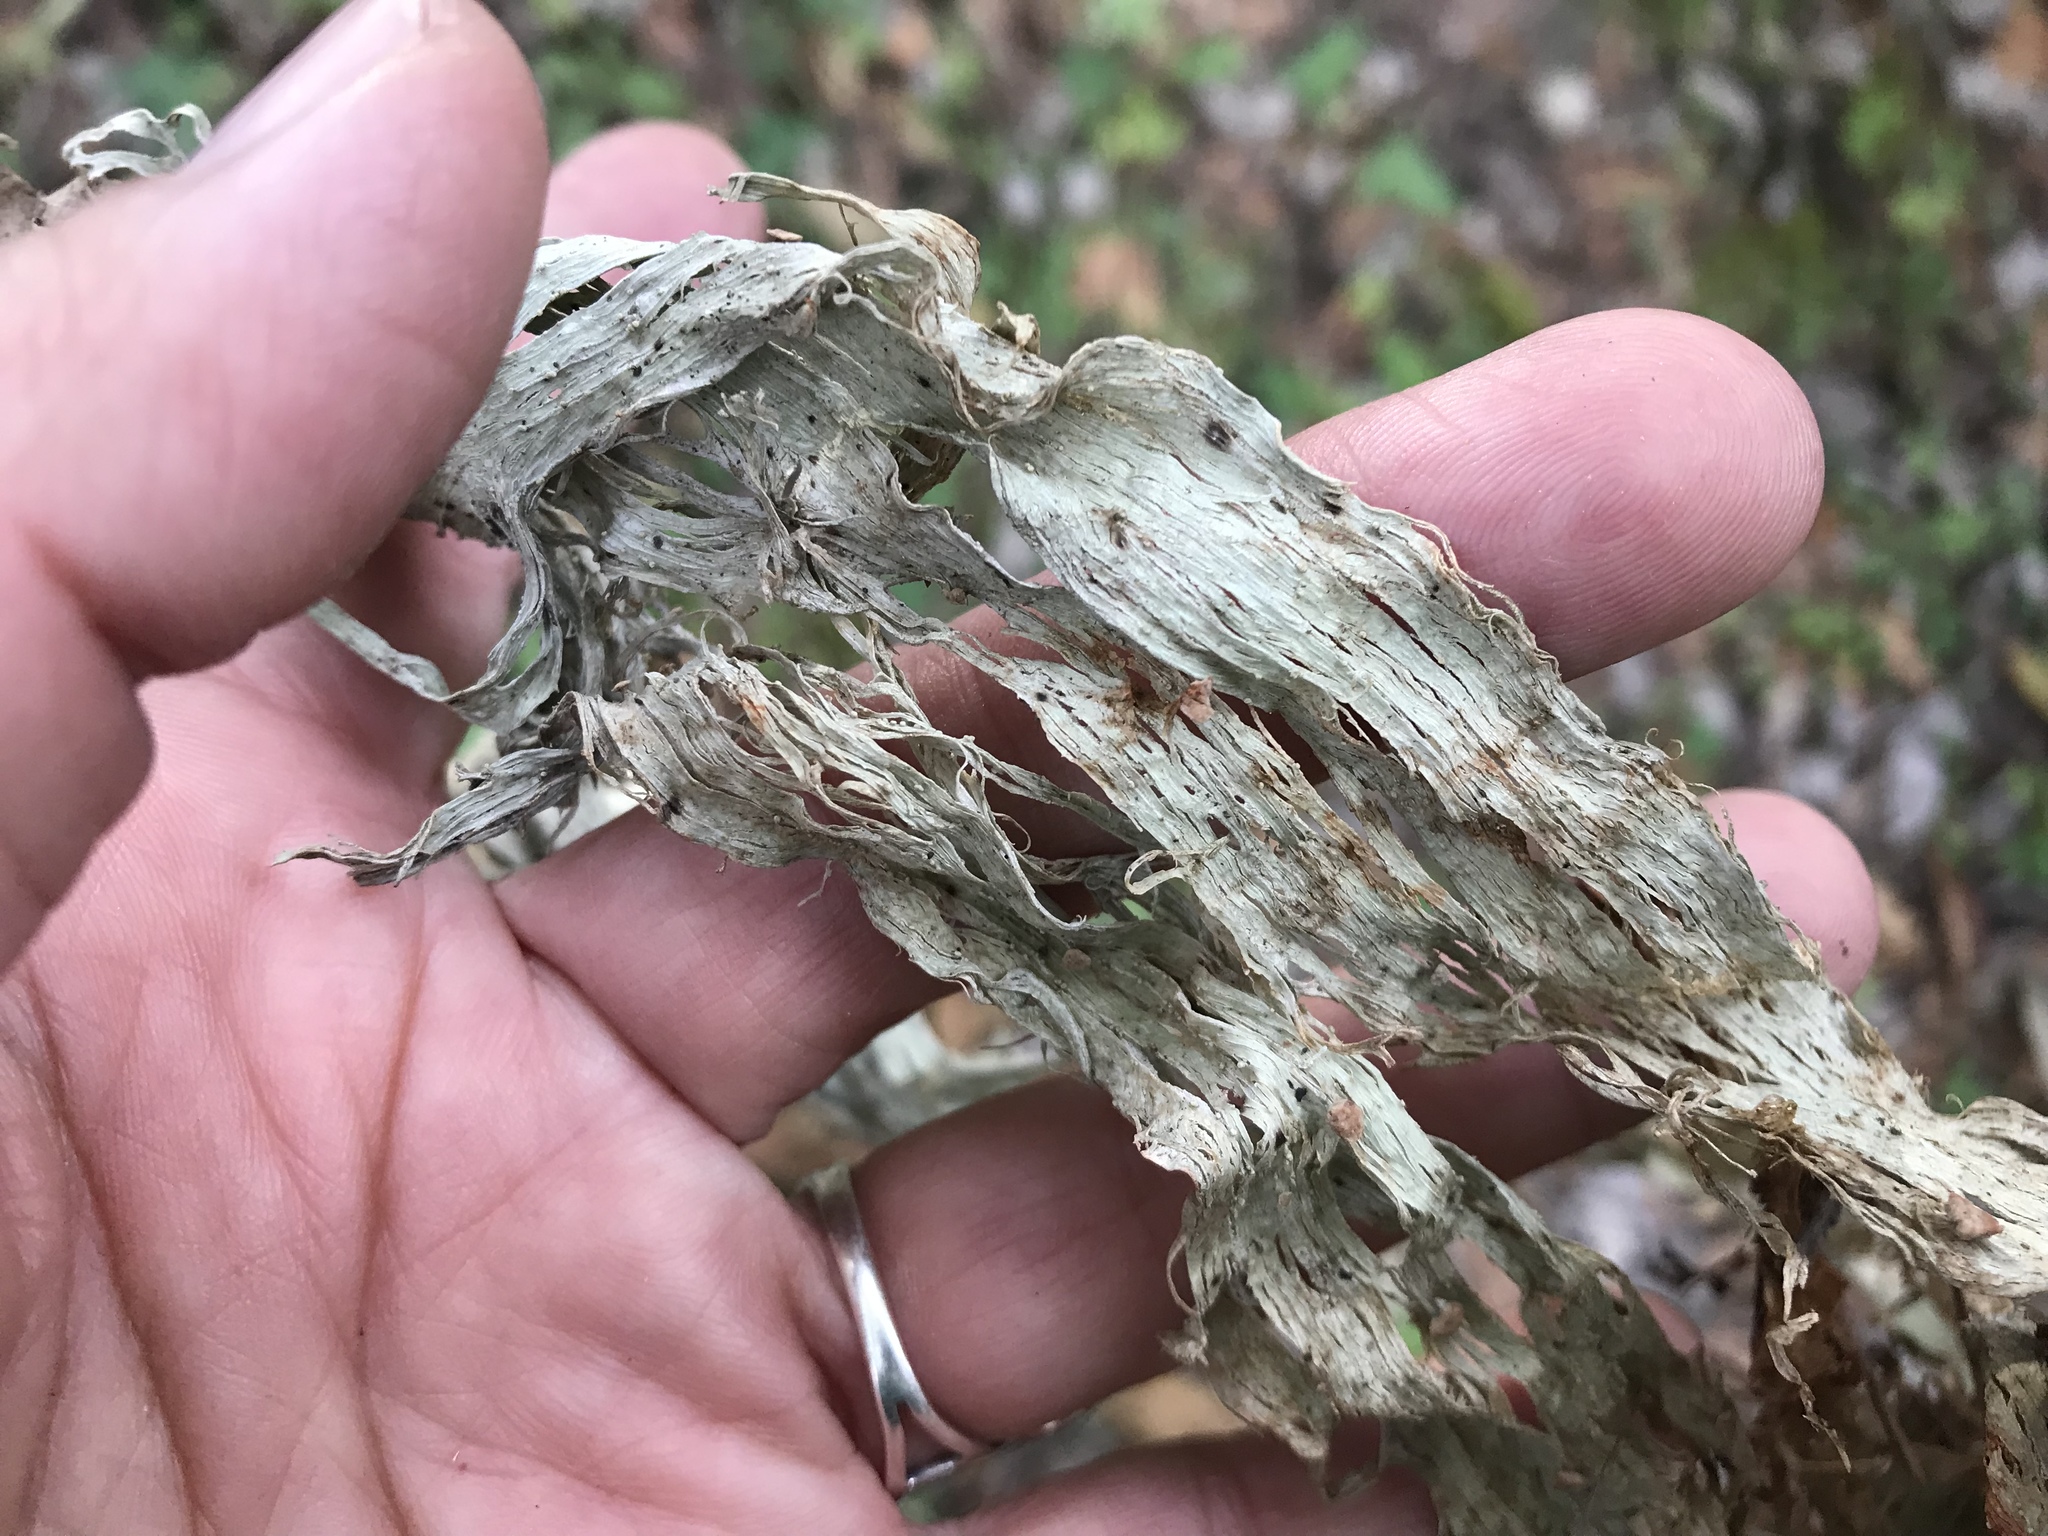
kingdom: Fungi
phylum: Ascomycota
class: Lecanoromycetes
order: Lecanorales
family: Ramalinaceae
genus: Ramalina
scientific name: Ramalina
